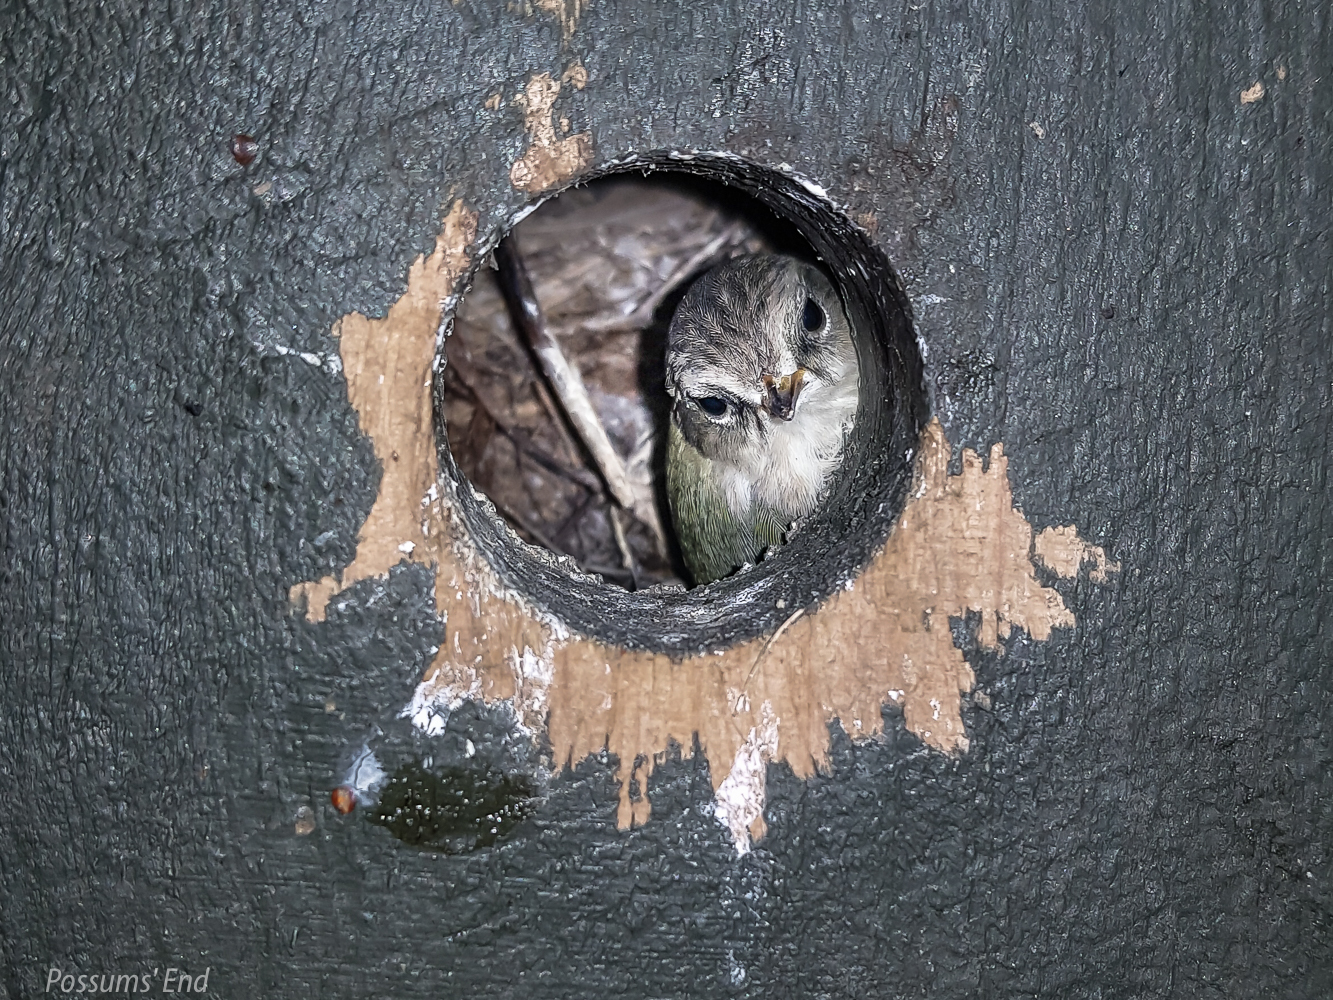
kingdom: Animalia
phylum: Chordata
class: Aves
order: Passeriformes
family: Acanthisittidae
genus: Acanthisitta
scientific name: Acanthisitta chloris
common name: Rifleman
